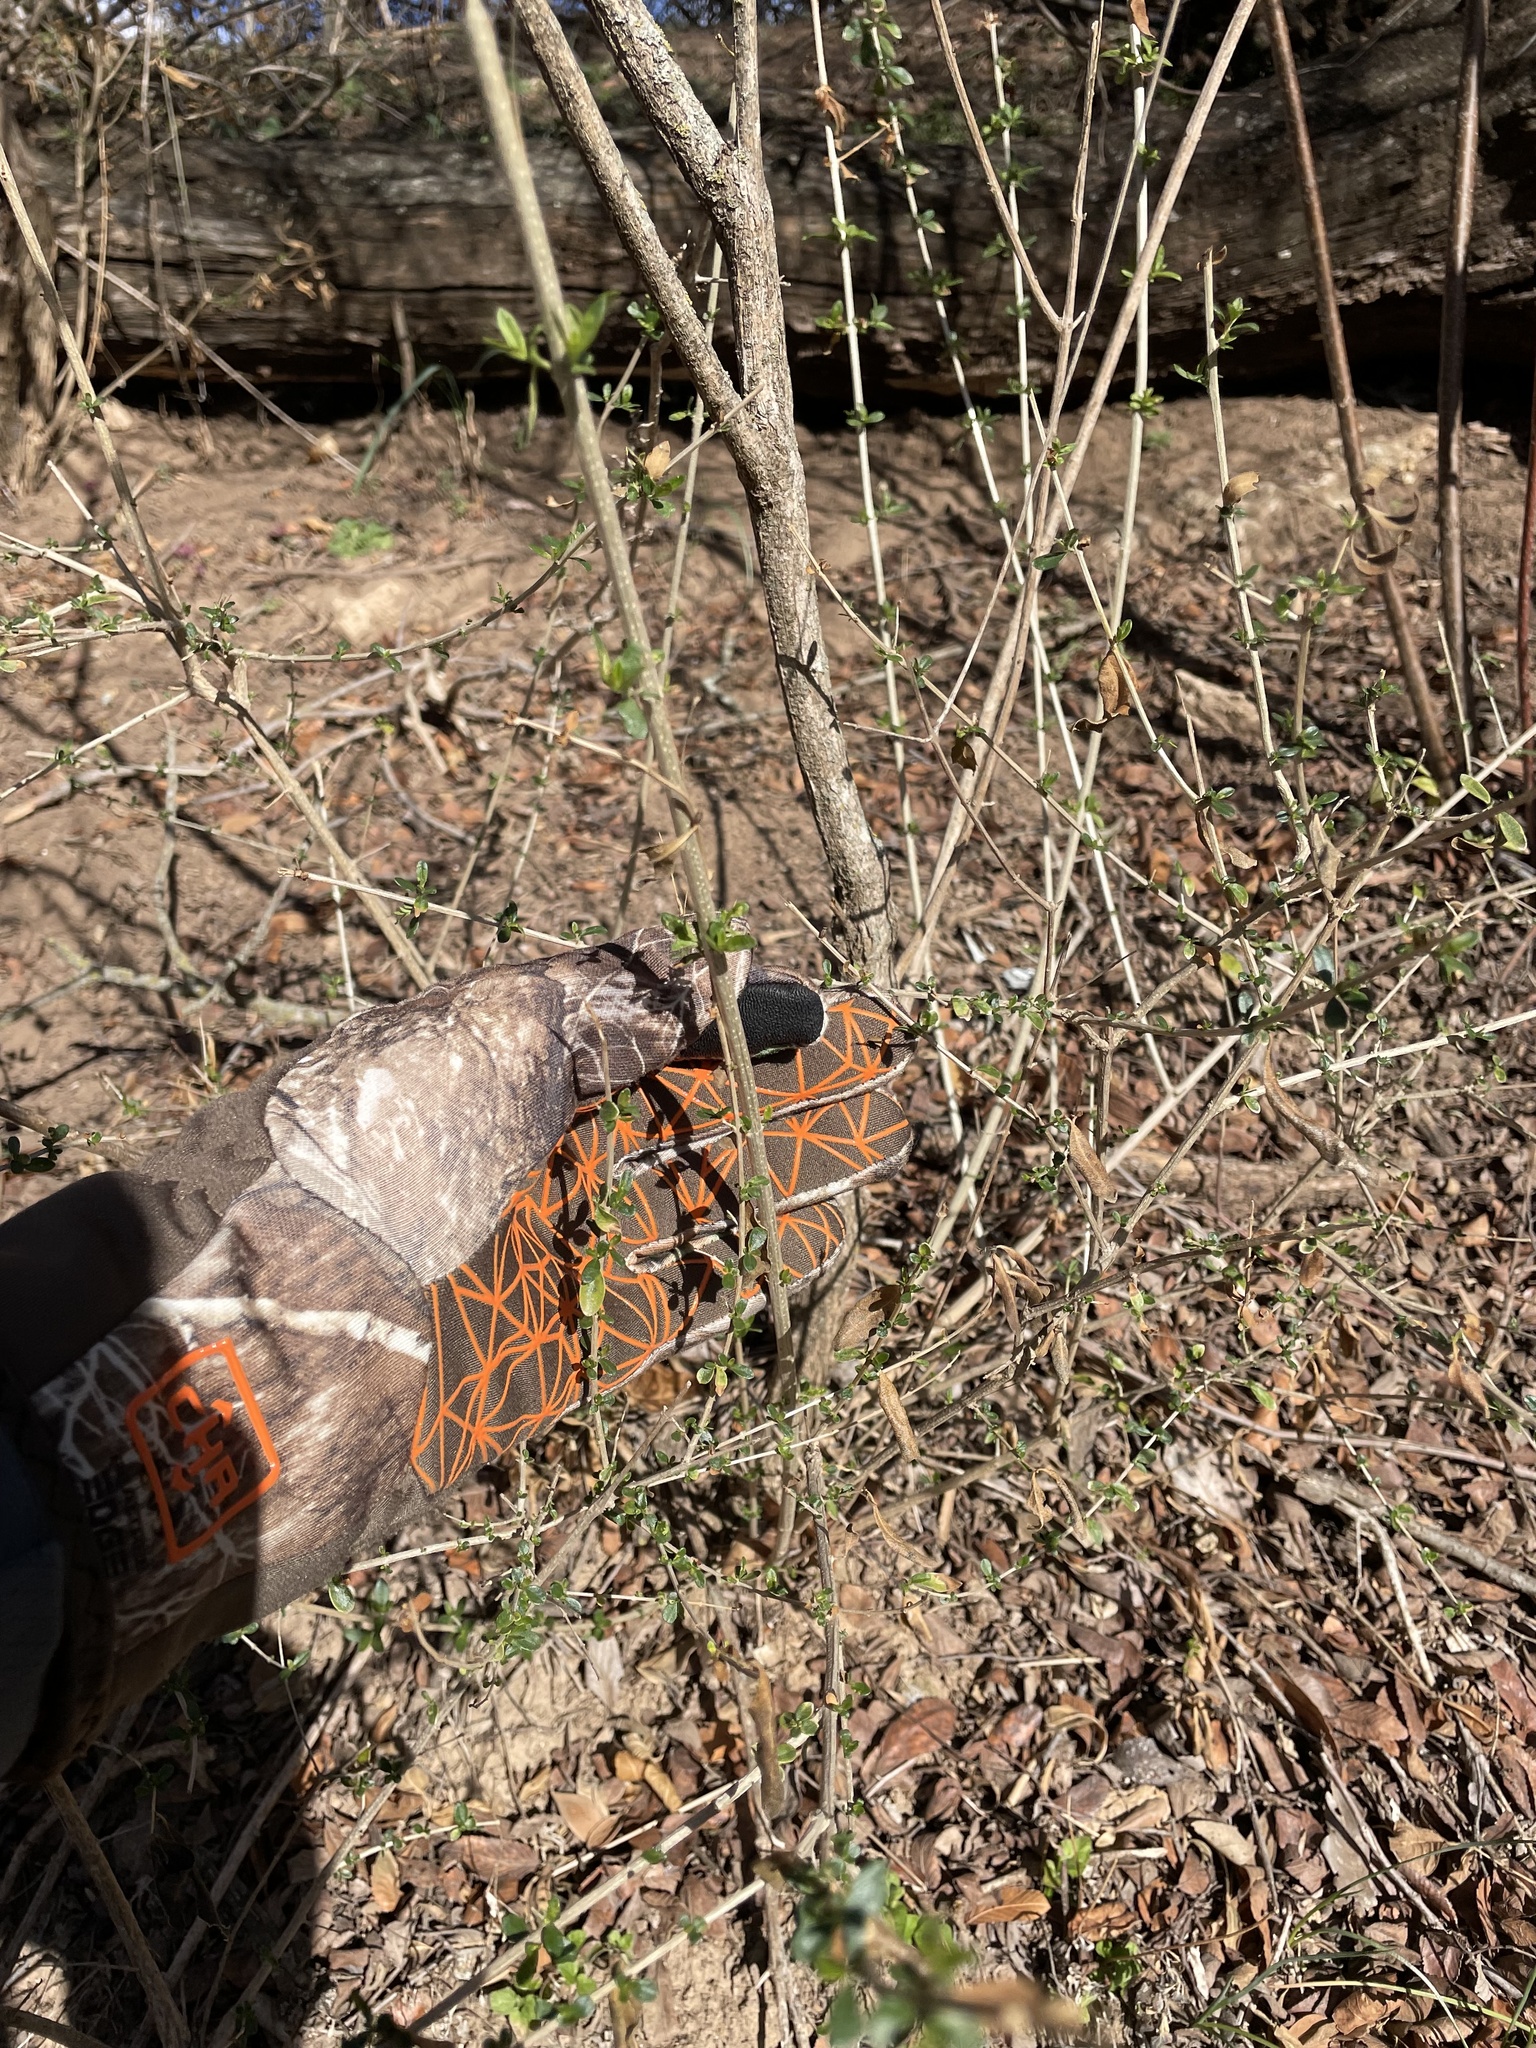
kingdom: Plantae
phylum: Tracheophyta
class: Magnoliopsida
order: Lamiales
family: Verbenaceae
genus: Aloysia
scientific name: Aloysia gratissima
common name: Common bee-brush
